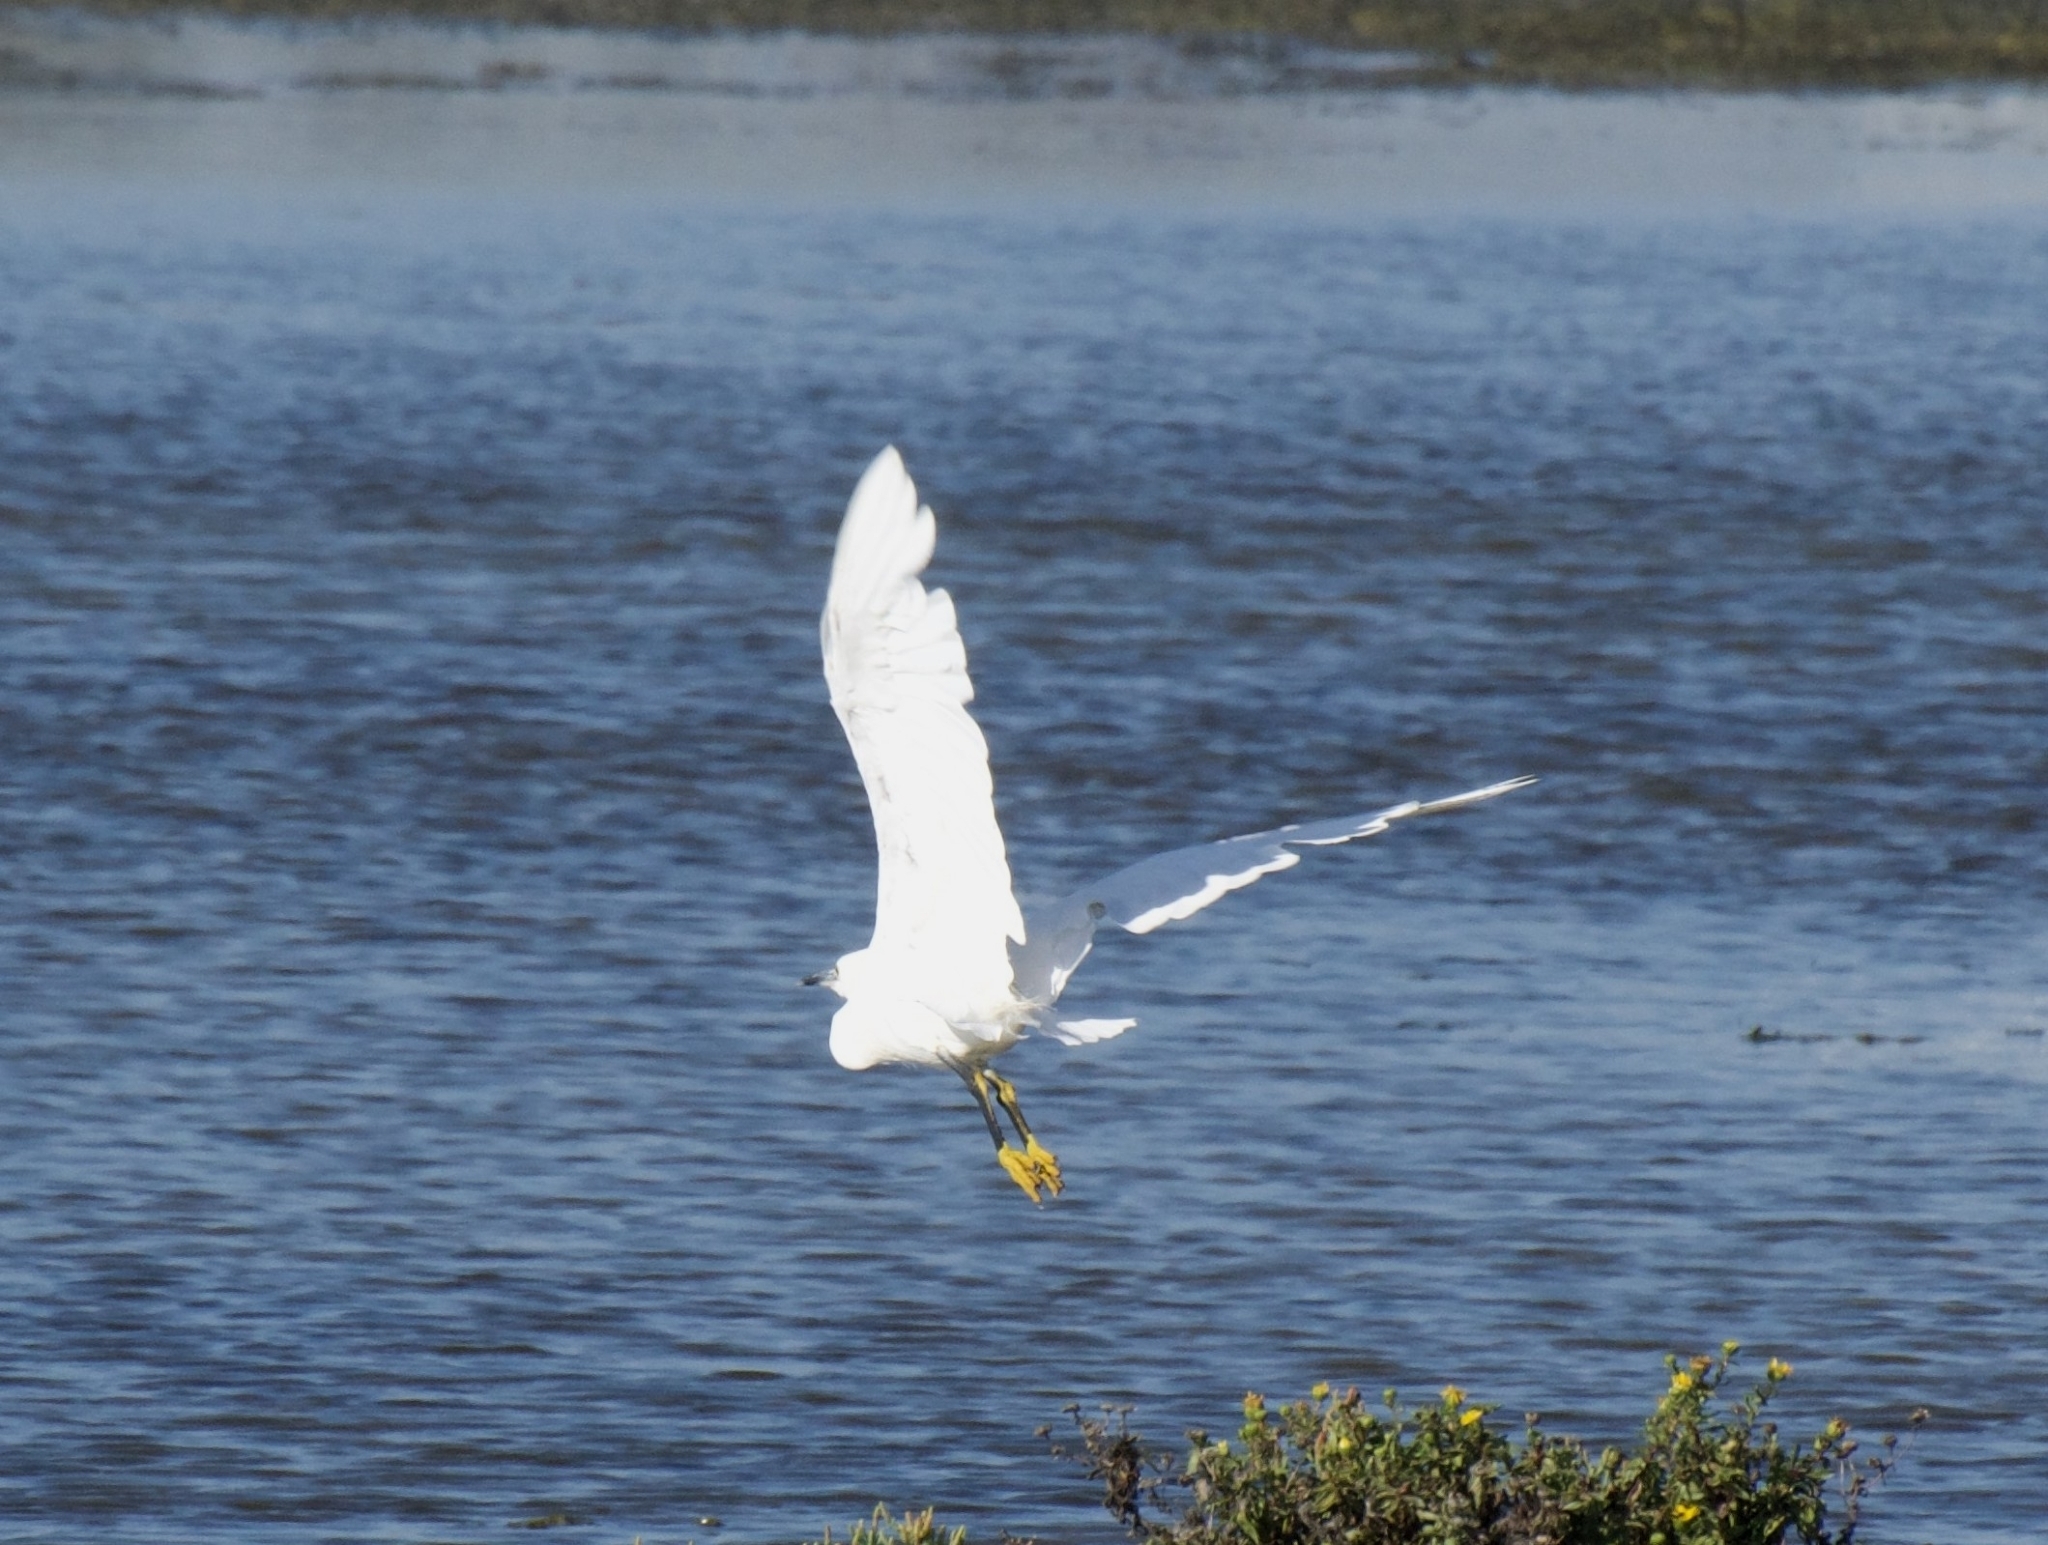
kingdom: Animalia
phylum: Chordata
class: Aves
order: Pelecaniformes
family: Ardeidae
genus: Egretta
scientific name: Egretta thula
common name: Snowy egret
